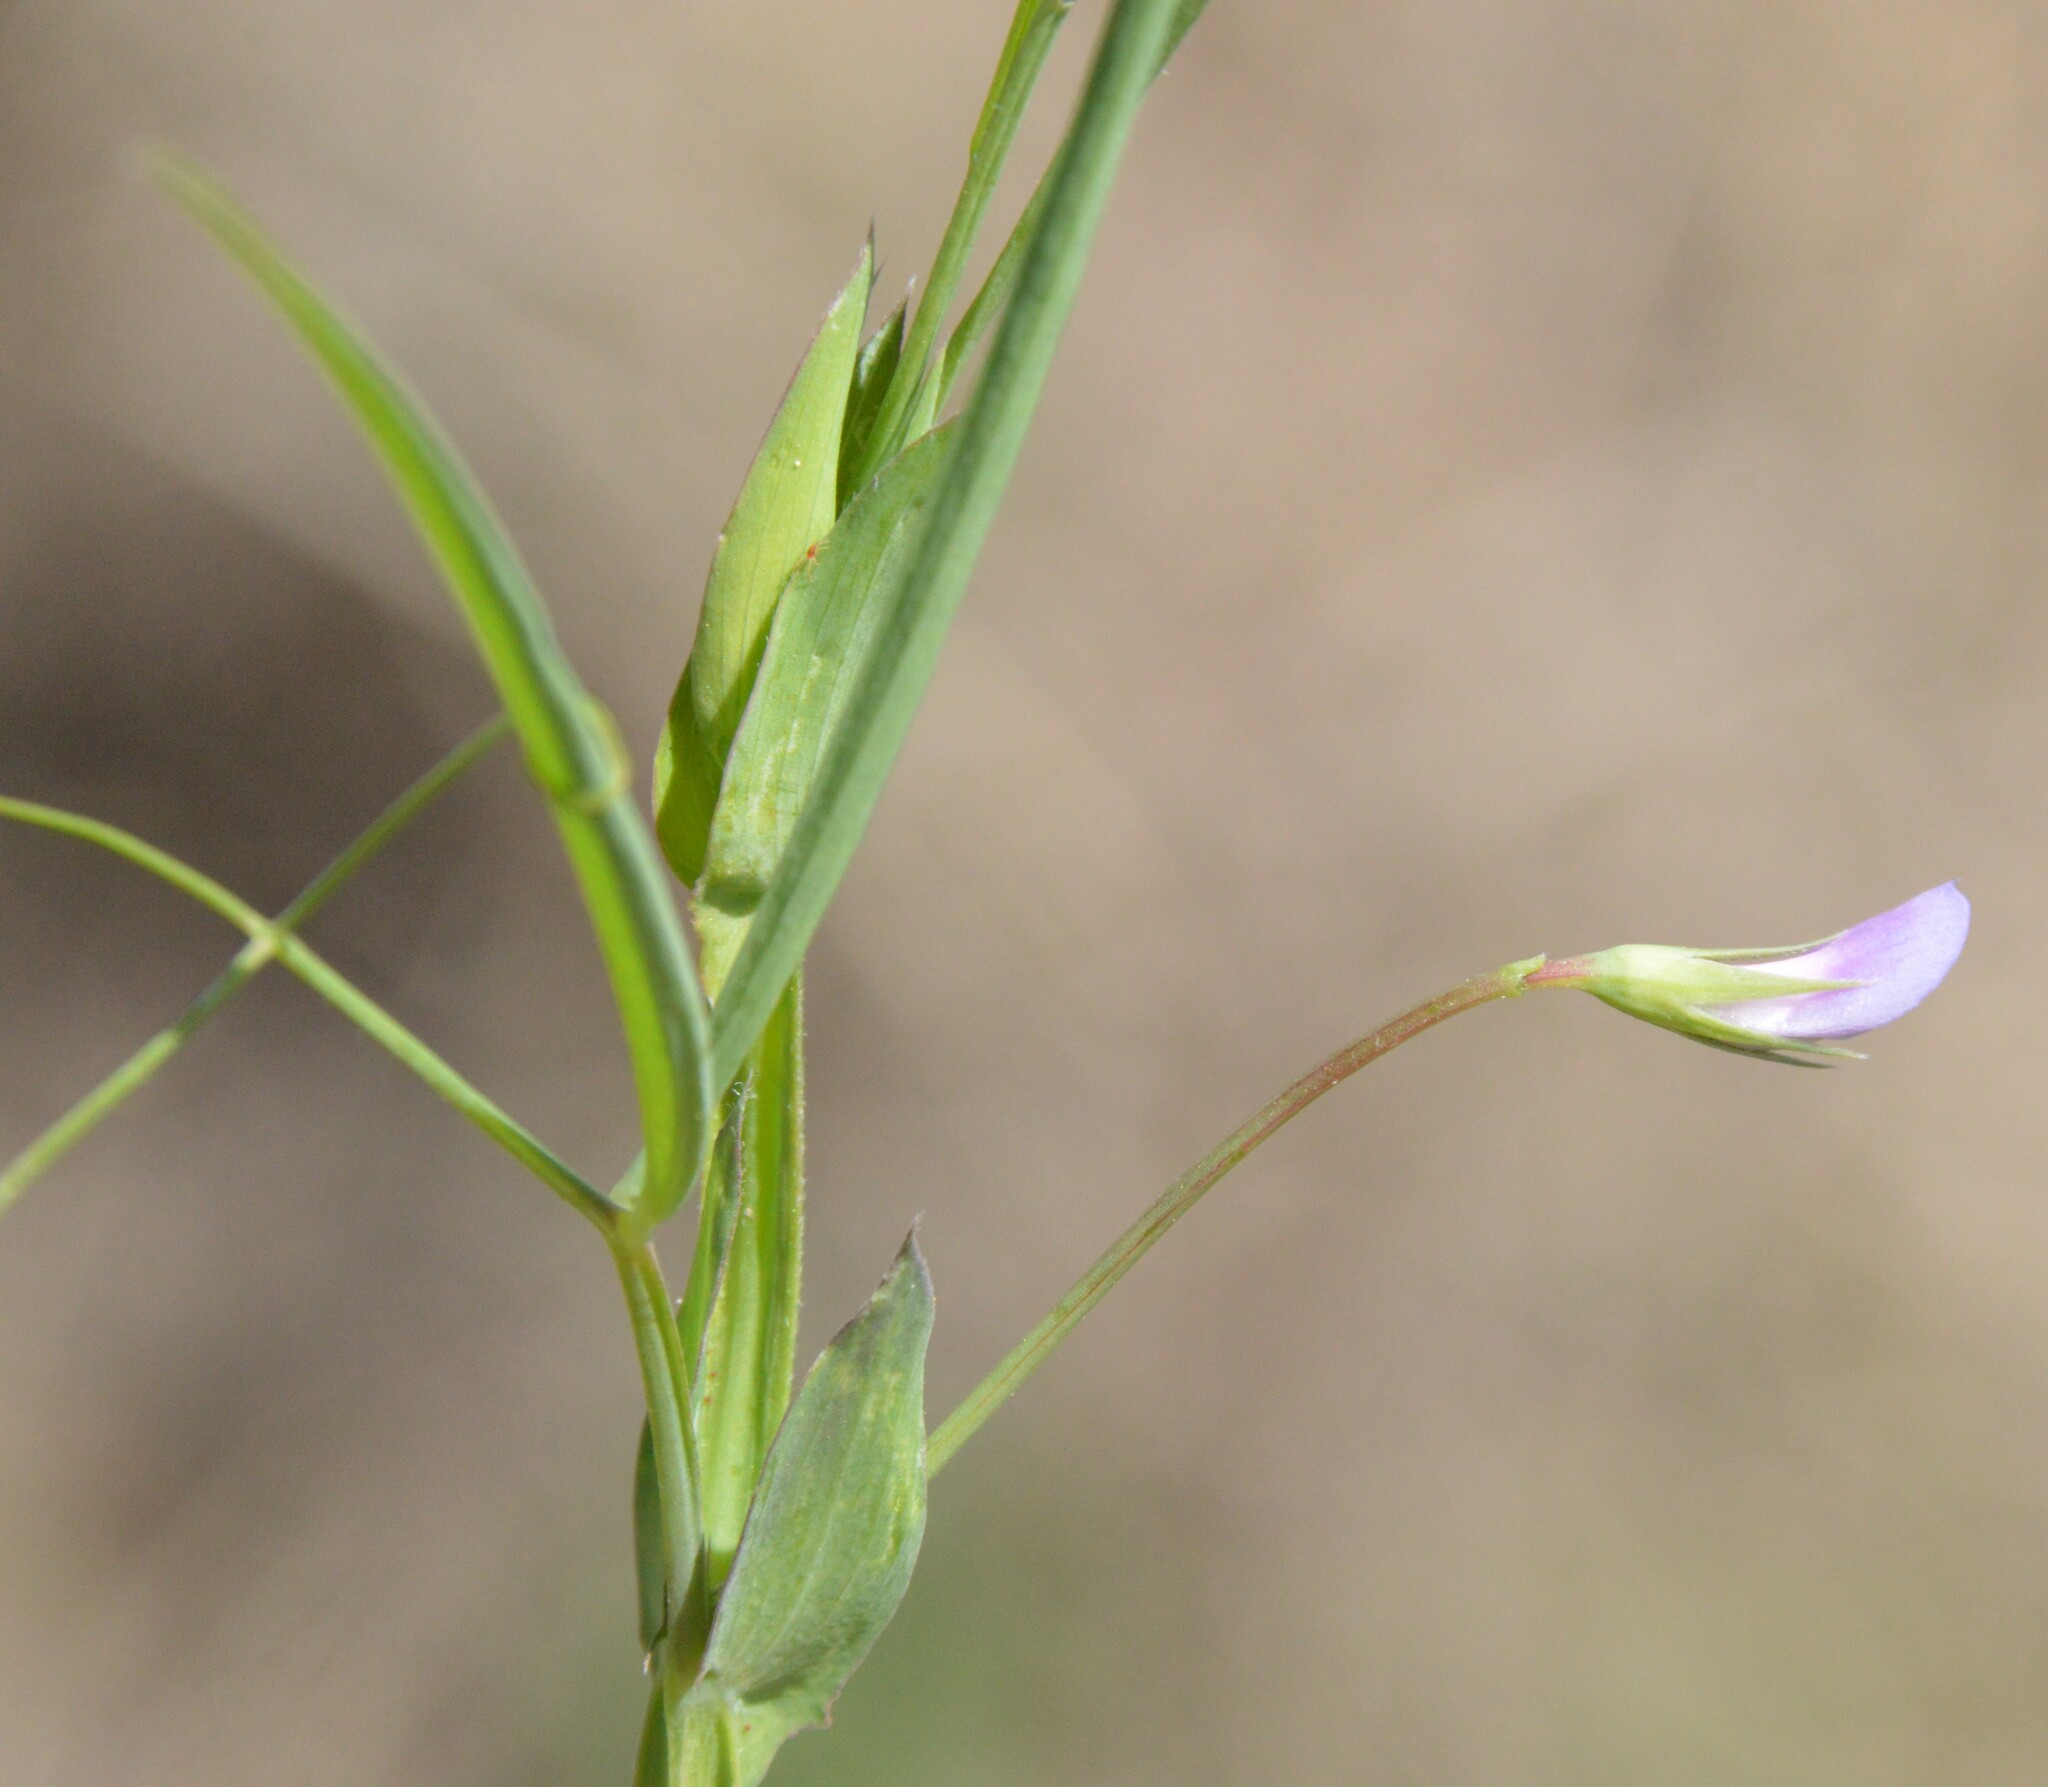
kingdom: Plantae
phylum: Tracheophyta
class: Magnoliopsida
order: Fabales
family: Fabaceae
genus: Lathyrus
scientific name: Lathyrus pusillus
